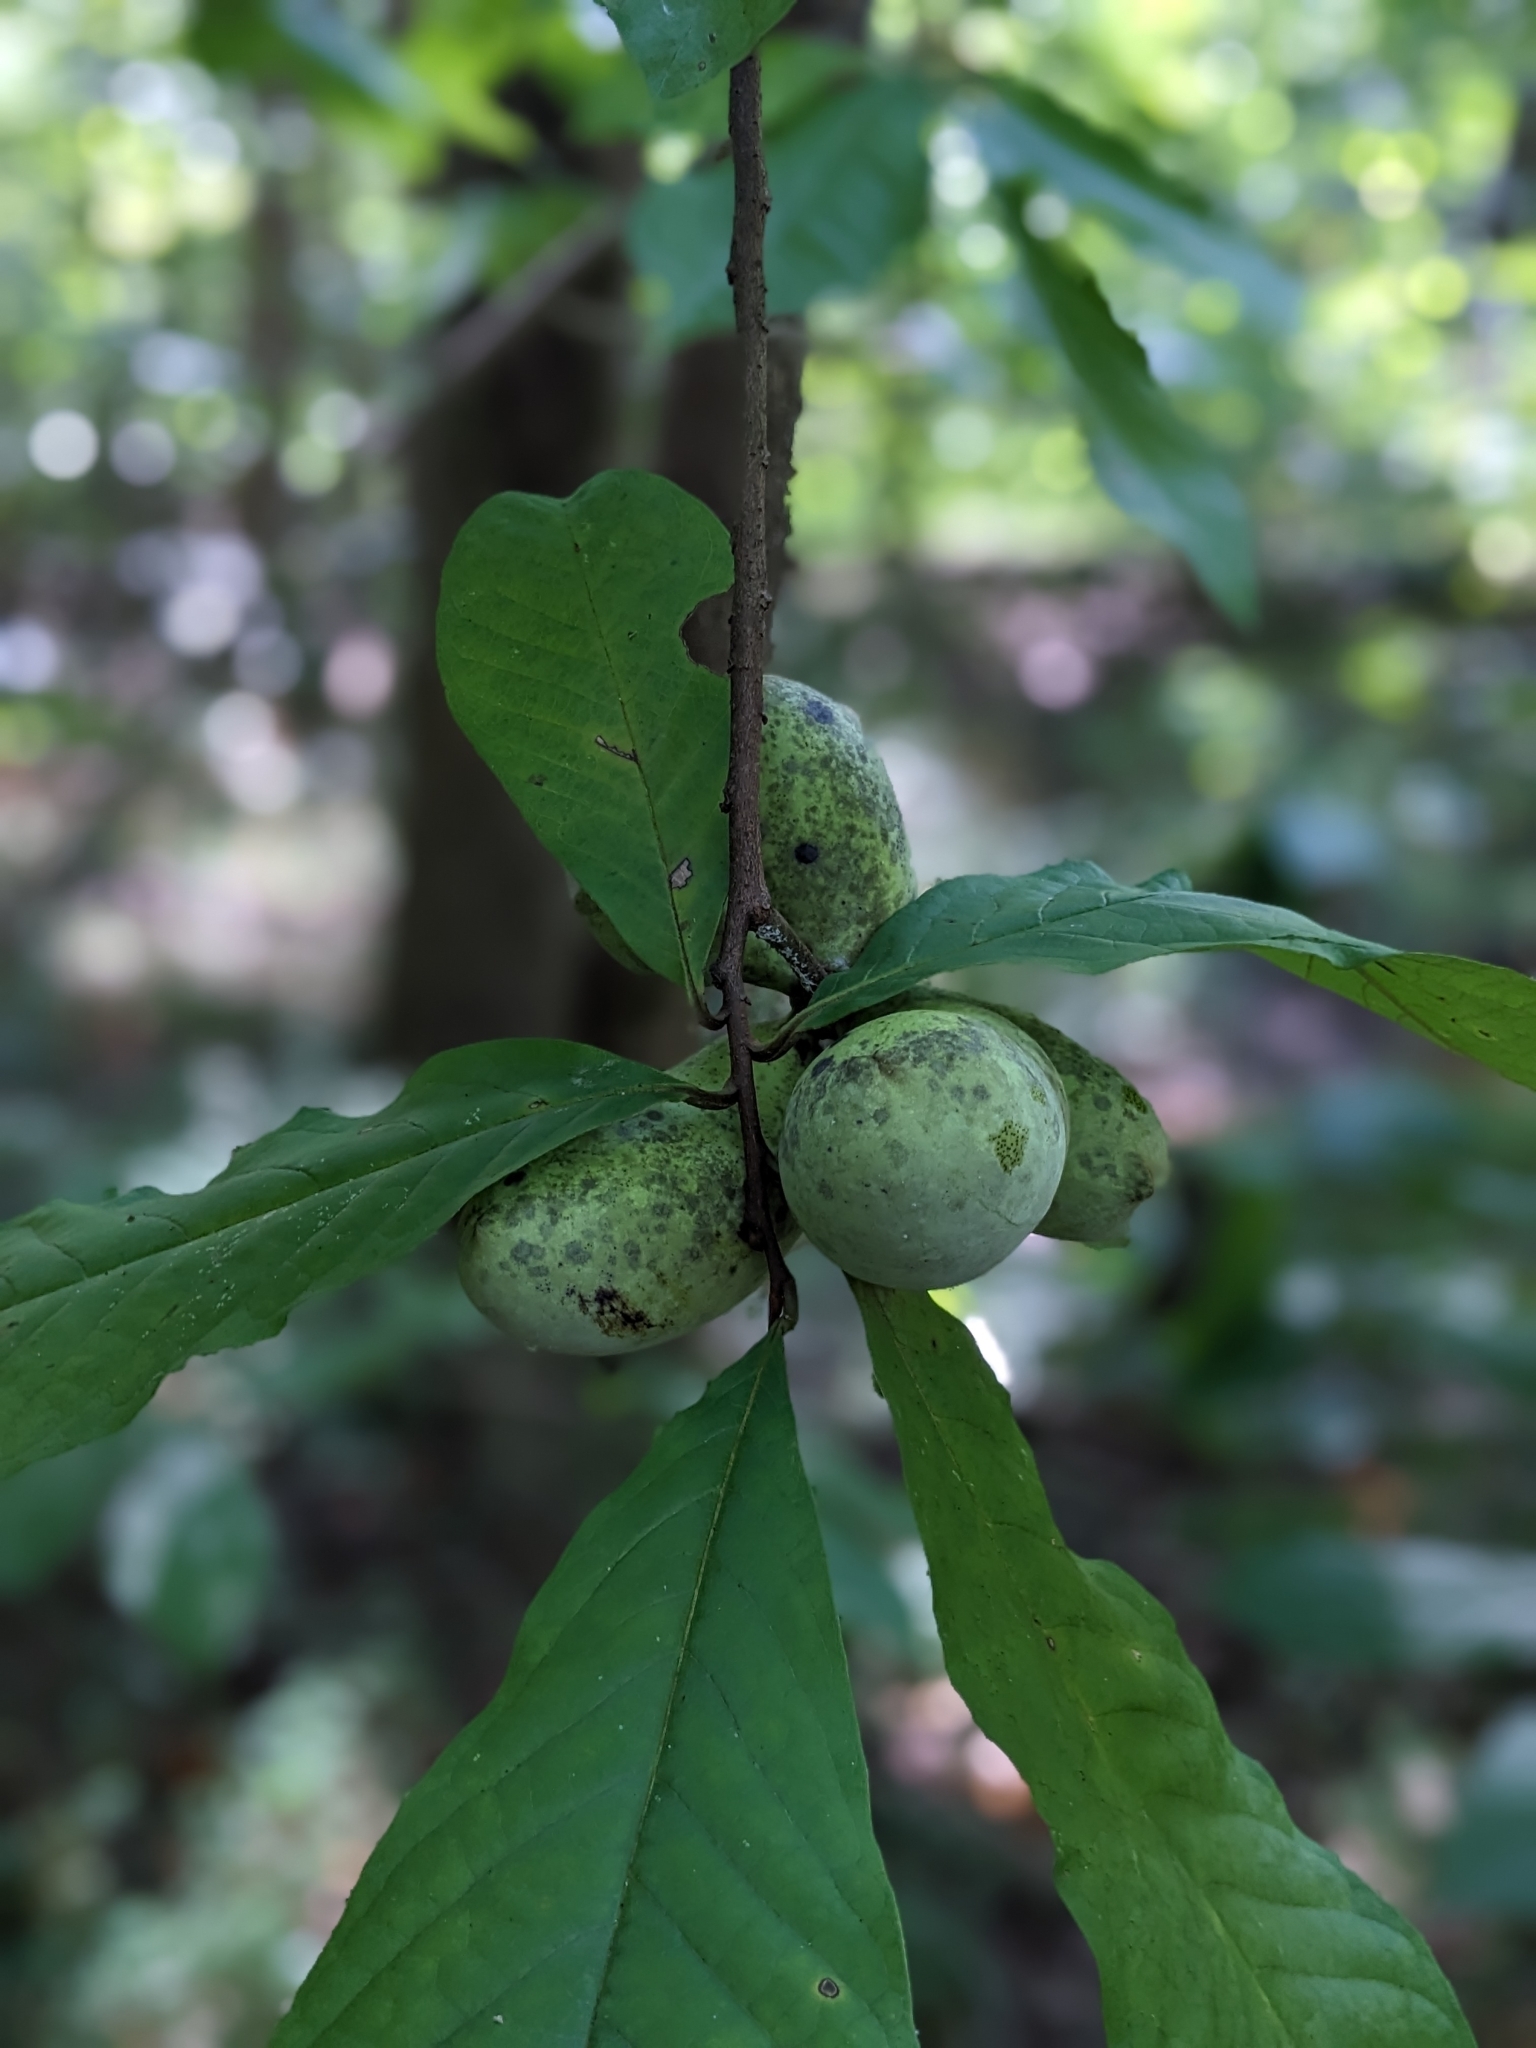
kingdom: Plantae
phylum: Tracheophyta
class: Magnoliopsida
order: Magnoliales
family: Annonaceae
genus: Asimina
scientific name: Asimina triloba
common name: Dog-banana
